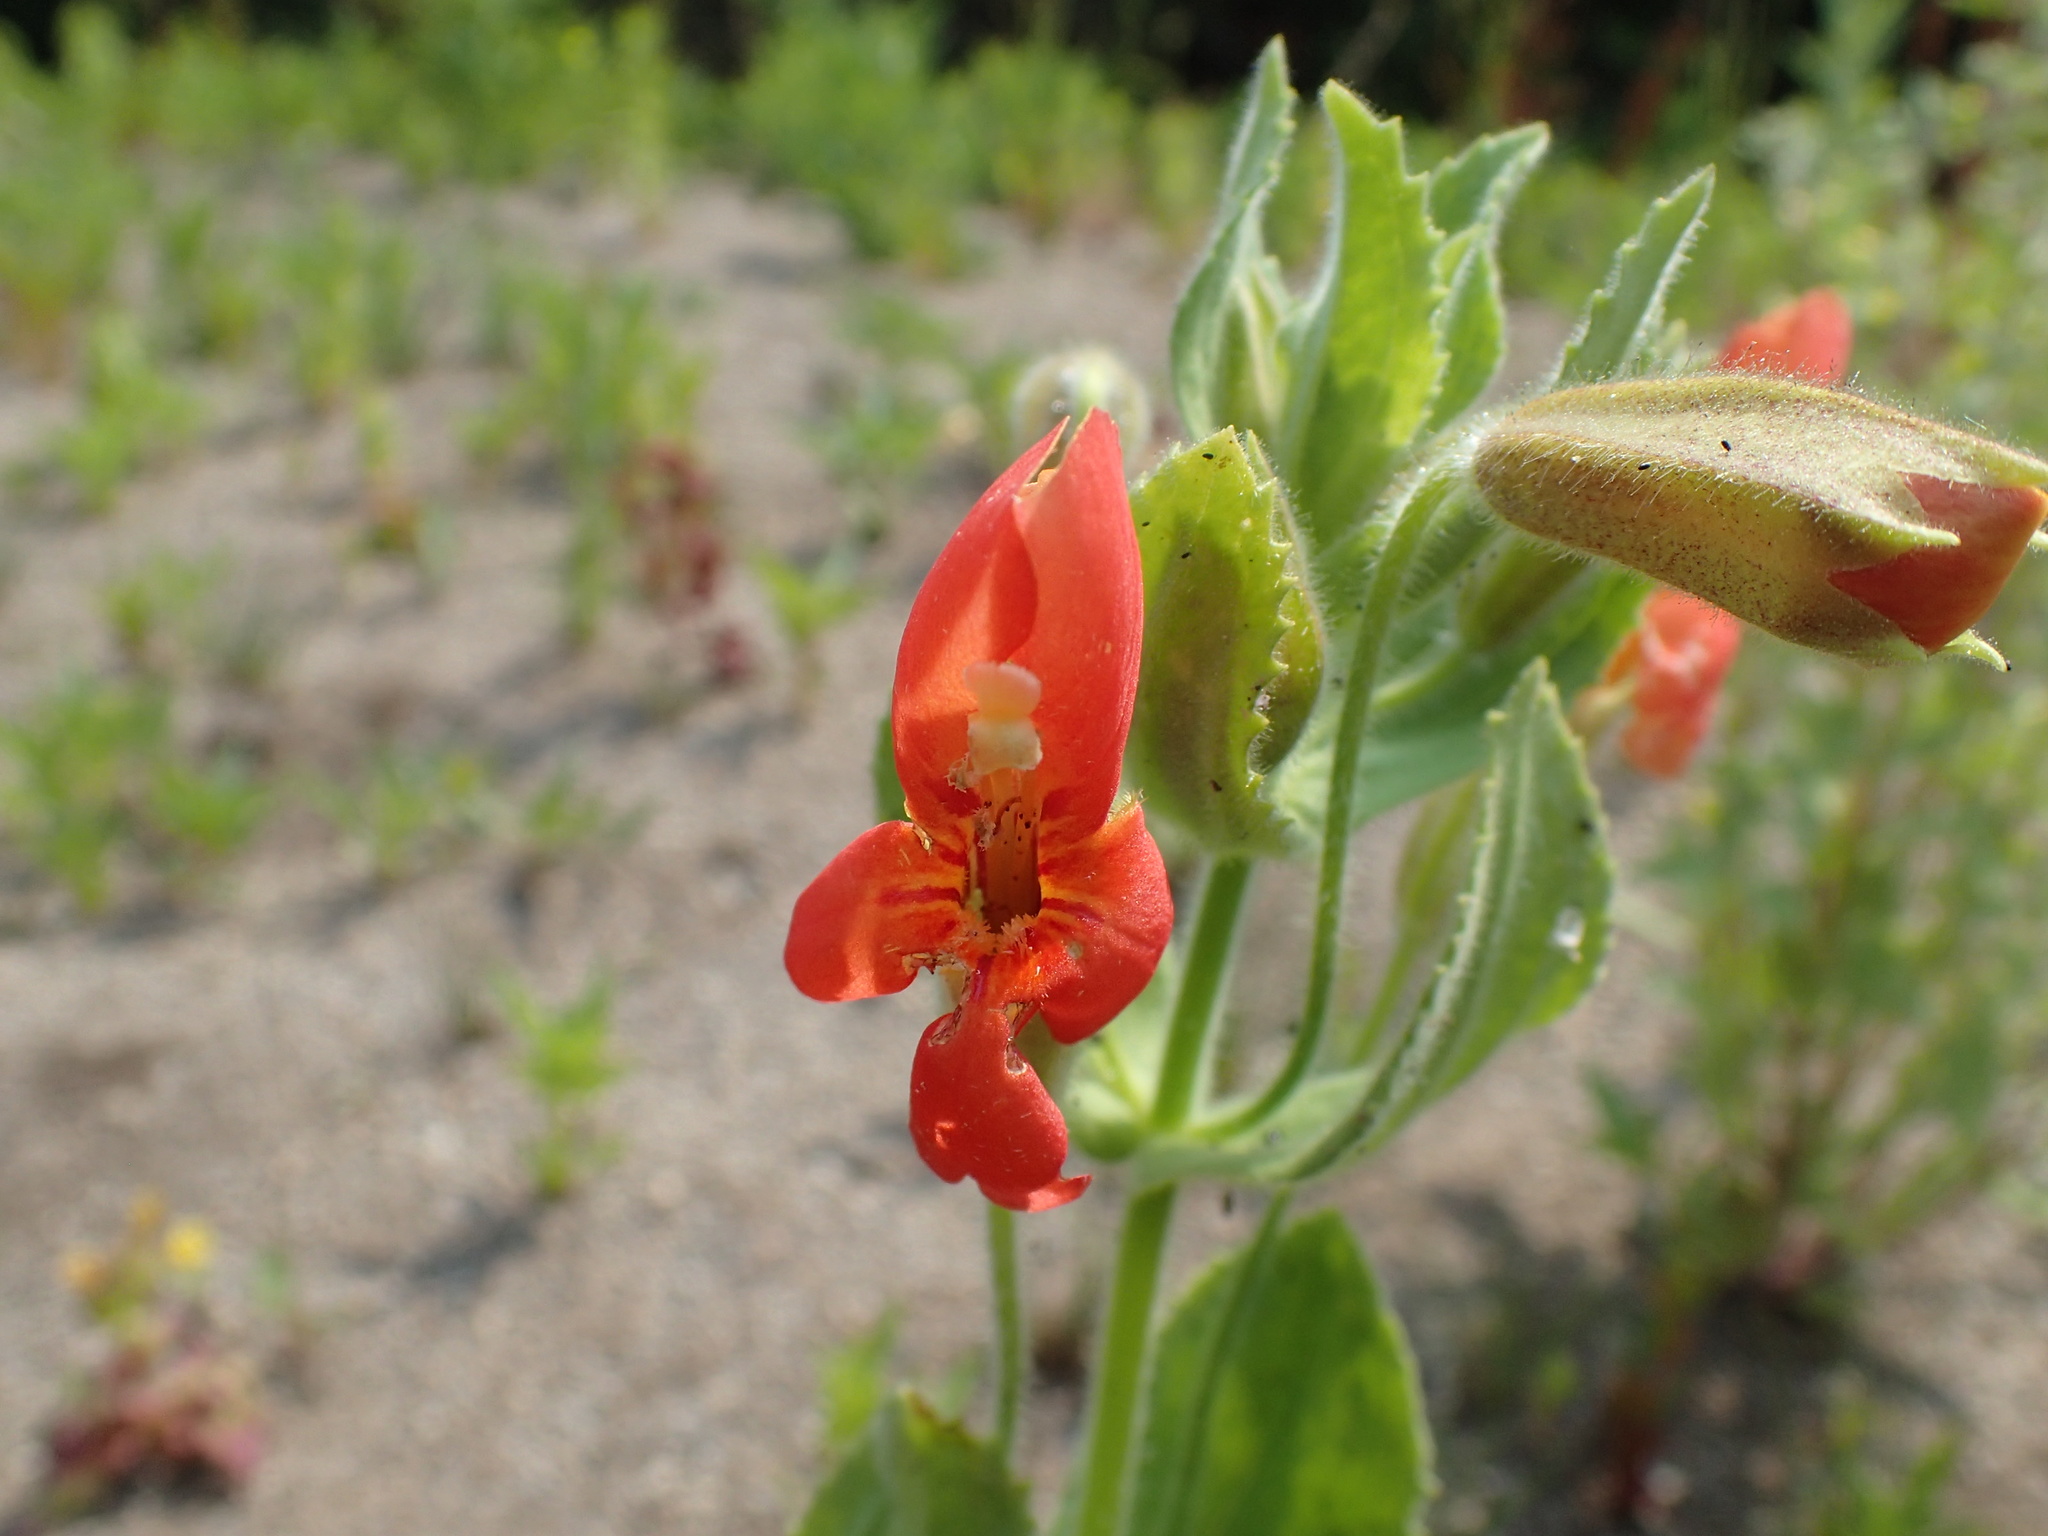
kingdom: Plantae
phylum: Tracheophyta
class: Magnoliopsida
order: Lamiales
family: Phrymaceae
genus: Erythranthe
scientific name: Erythranthe cardinalis
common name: Scarlet monkey-flower
